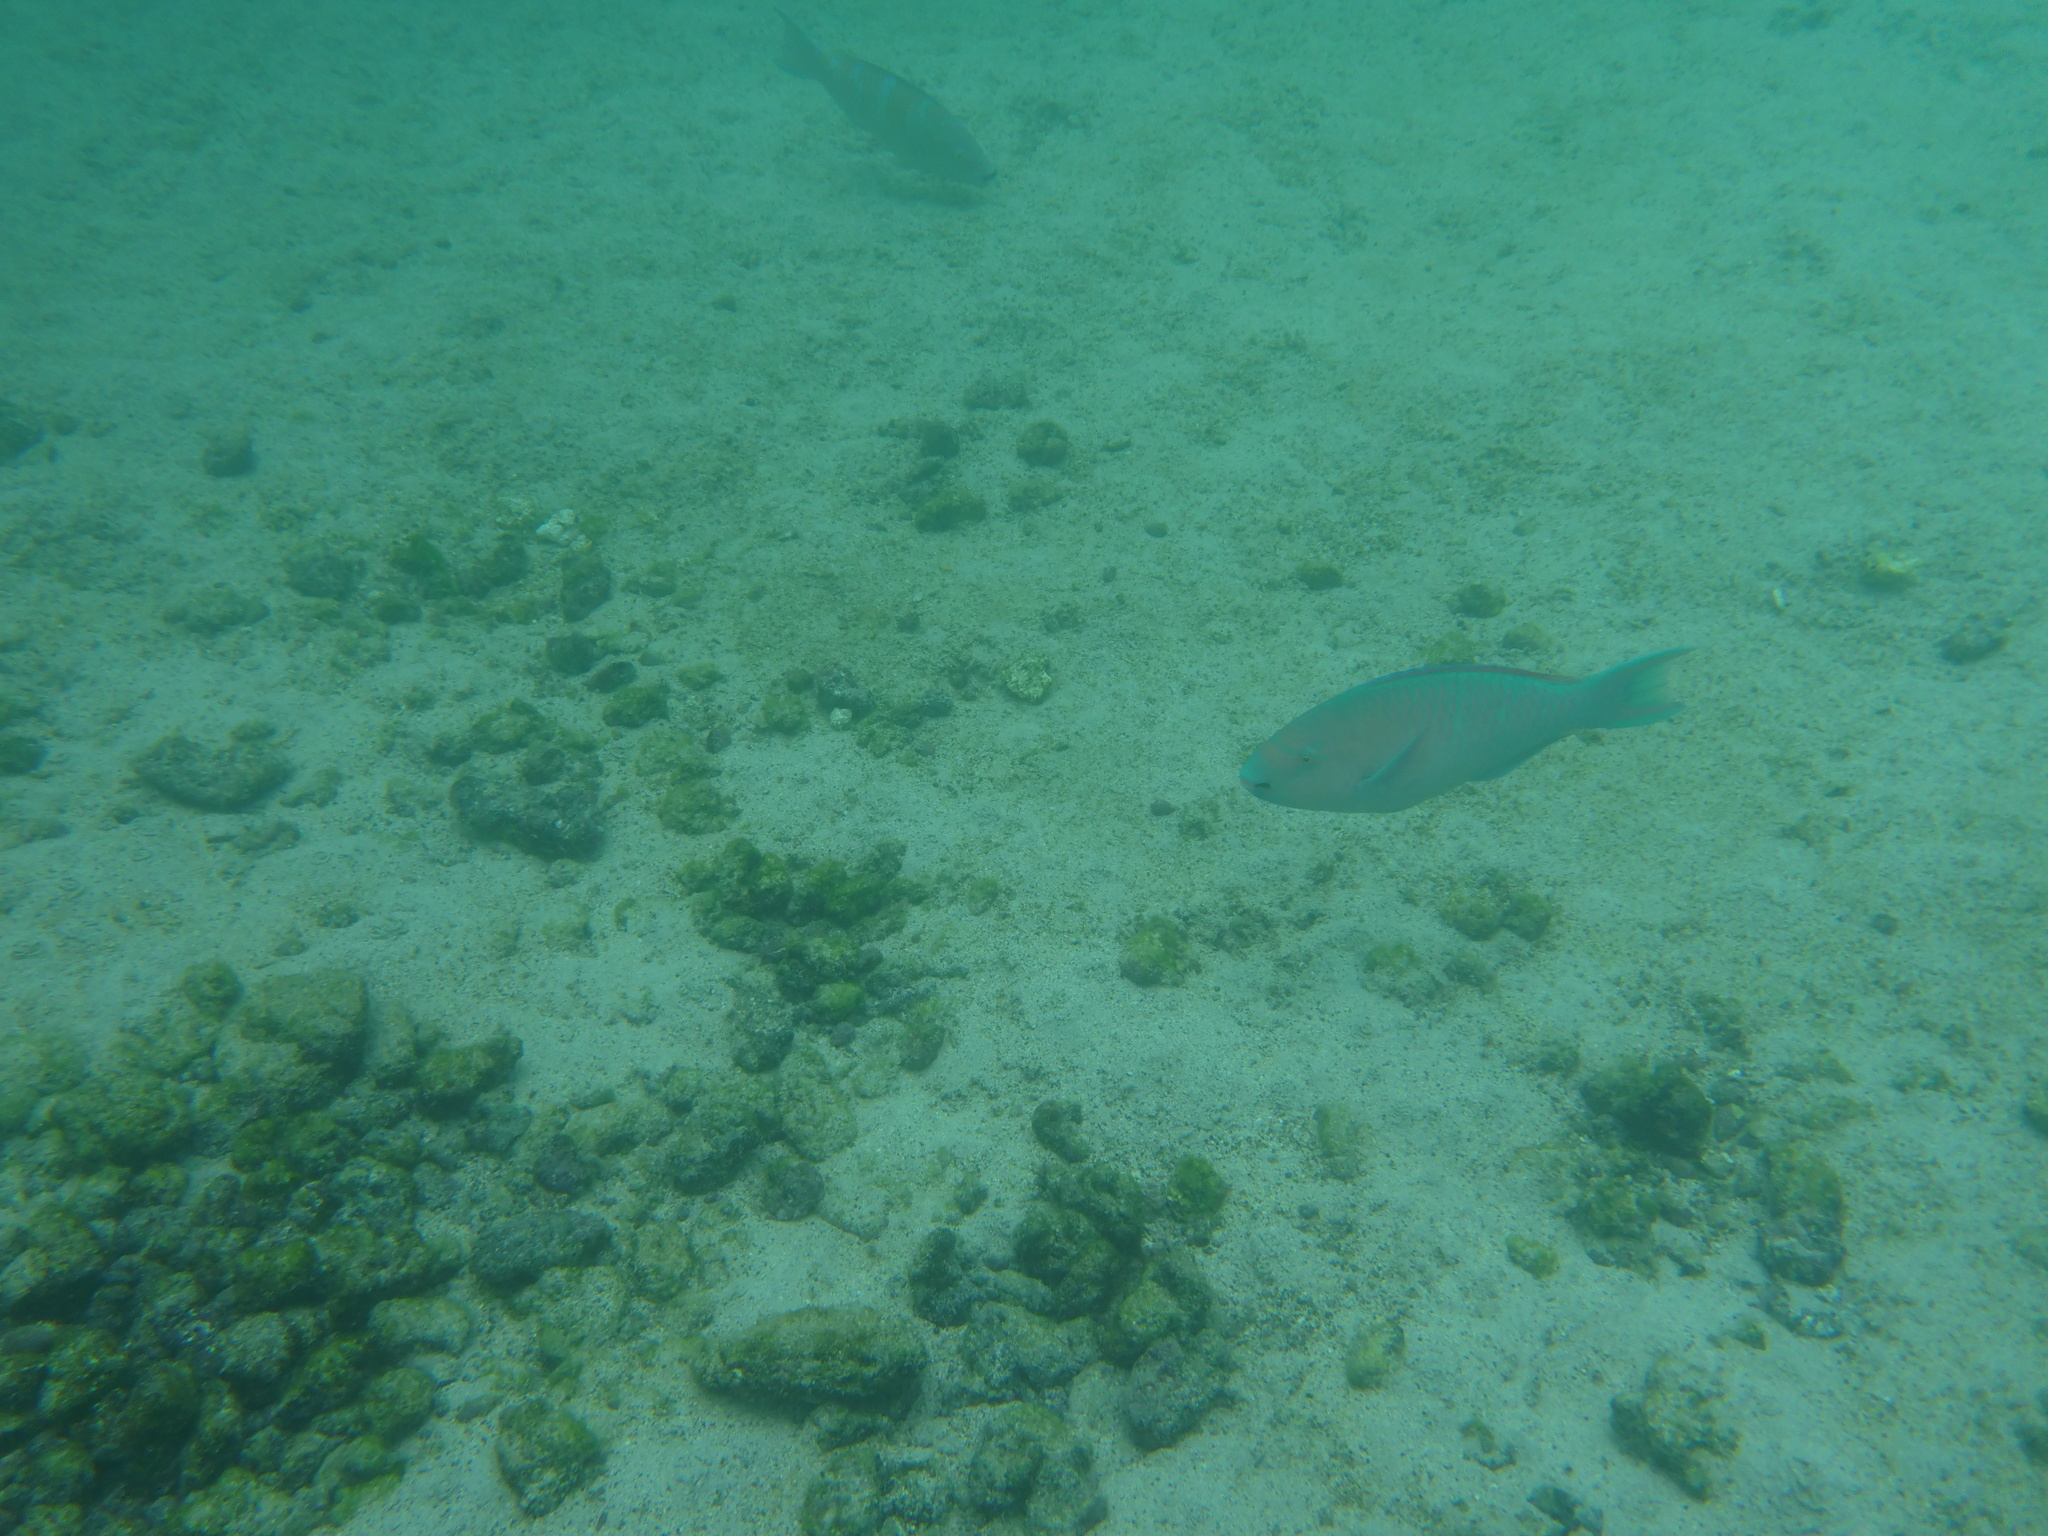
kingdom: Animalia
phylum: Chordata
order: Perciformes
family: Scaridae
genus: Scarus
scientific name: Scarus ghobban
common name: Blue-barred parrotfish
